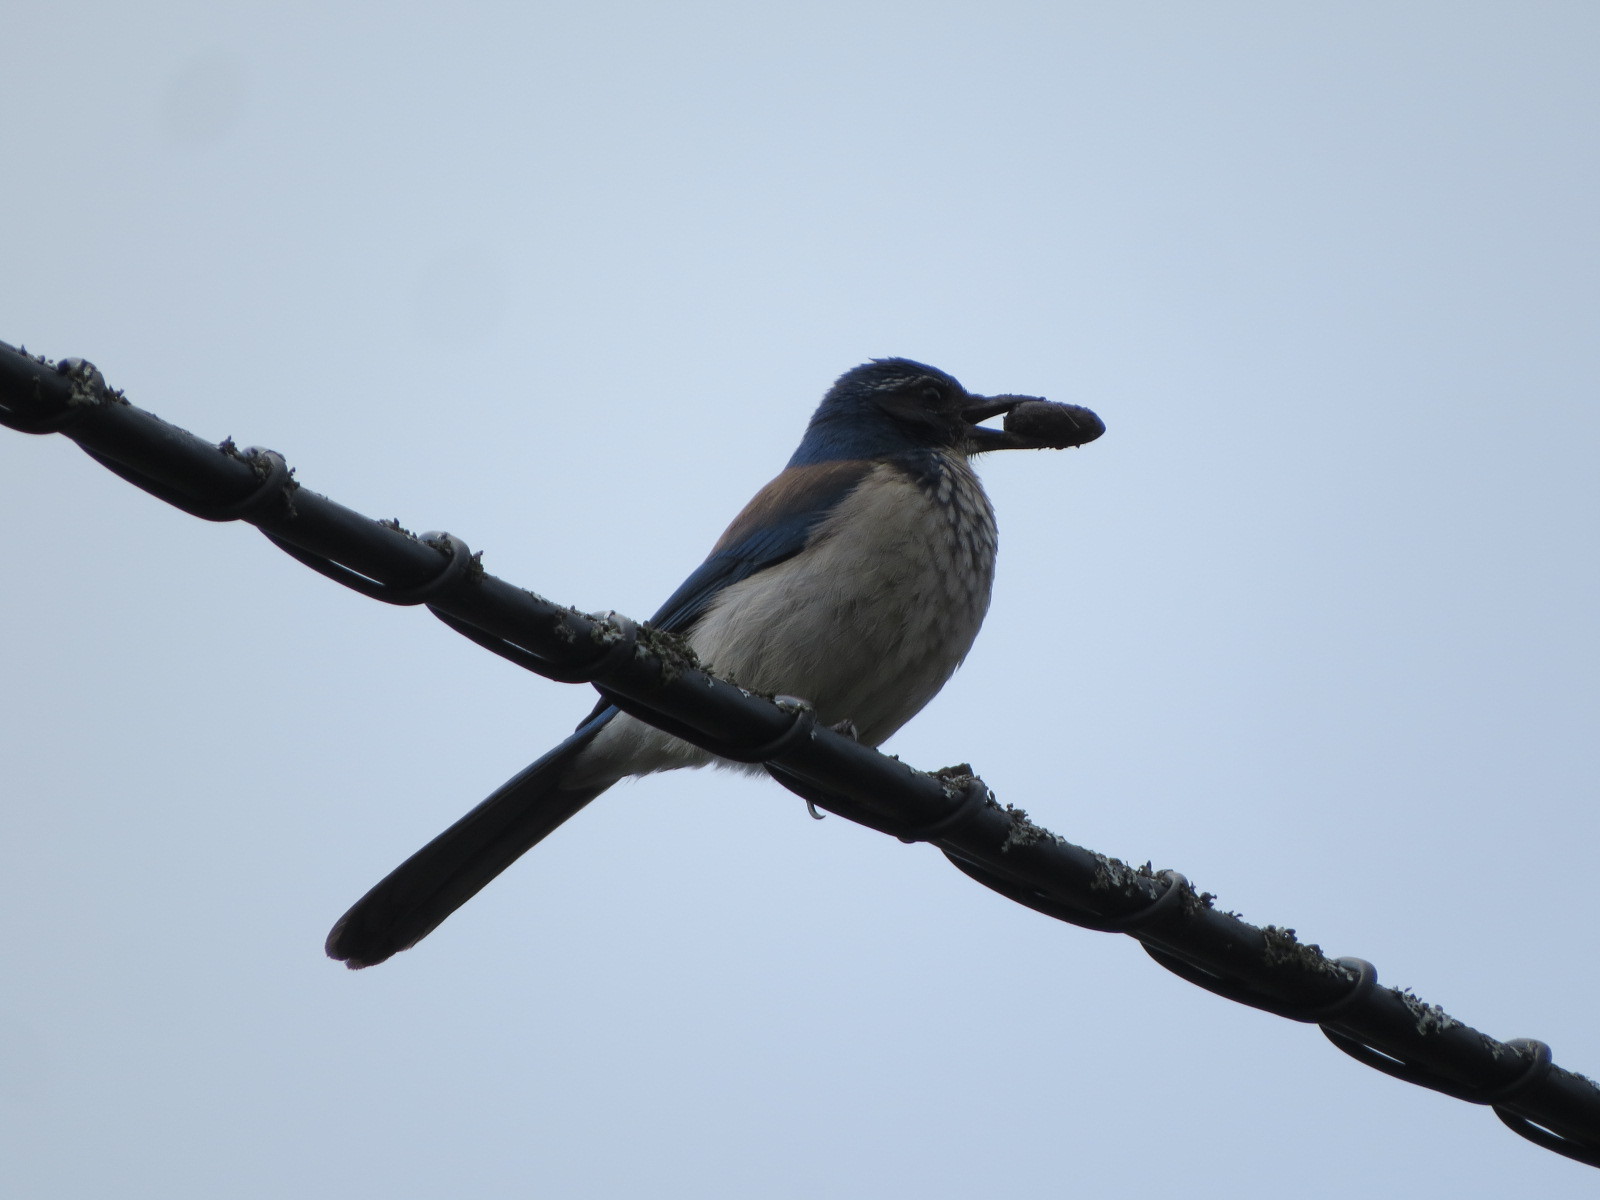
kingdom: Animalia
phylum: Chordata
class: Aves
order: Passeriformes
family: Corvidae
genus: Aphelocoma
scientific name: Aphelocoma californica
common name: California scrub-jay
